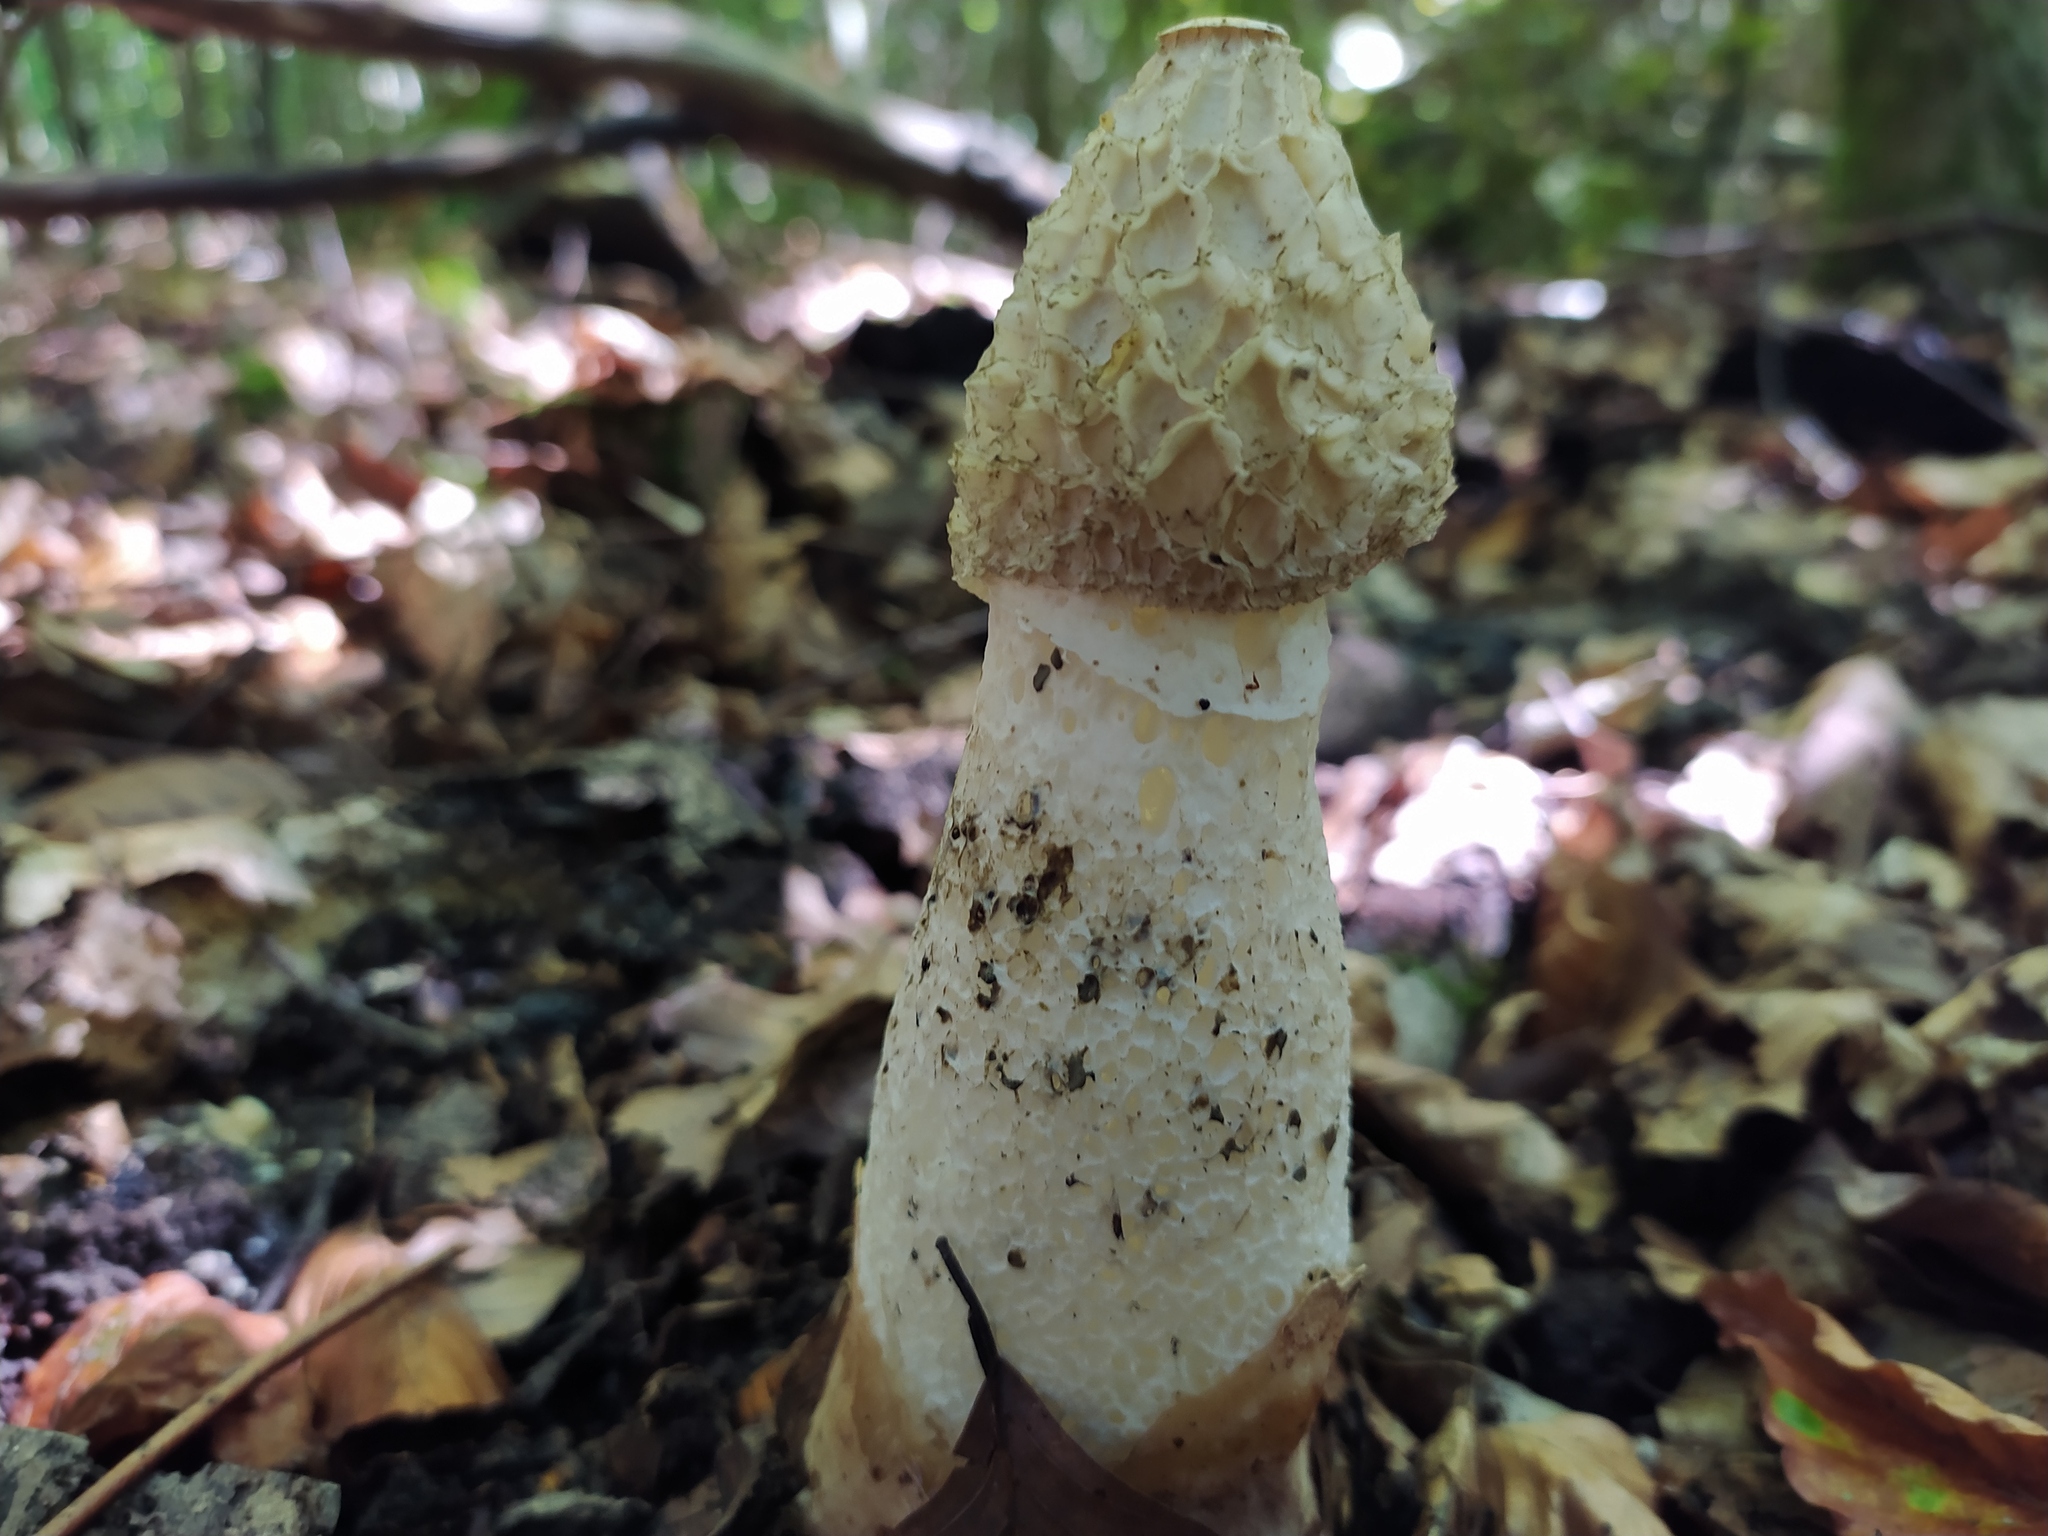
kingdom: Fungi
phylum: Basidiomycota
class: Agaricomycetes
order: Phallales
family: Phallaceae
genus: Phallus
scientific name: Phallus impudicus
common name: Common stinkhorn
